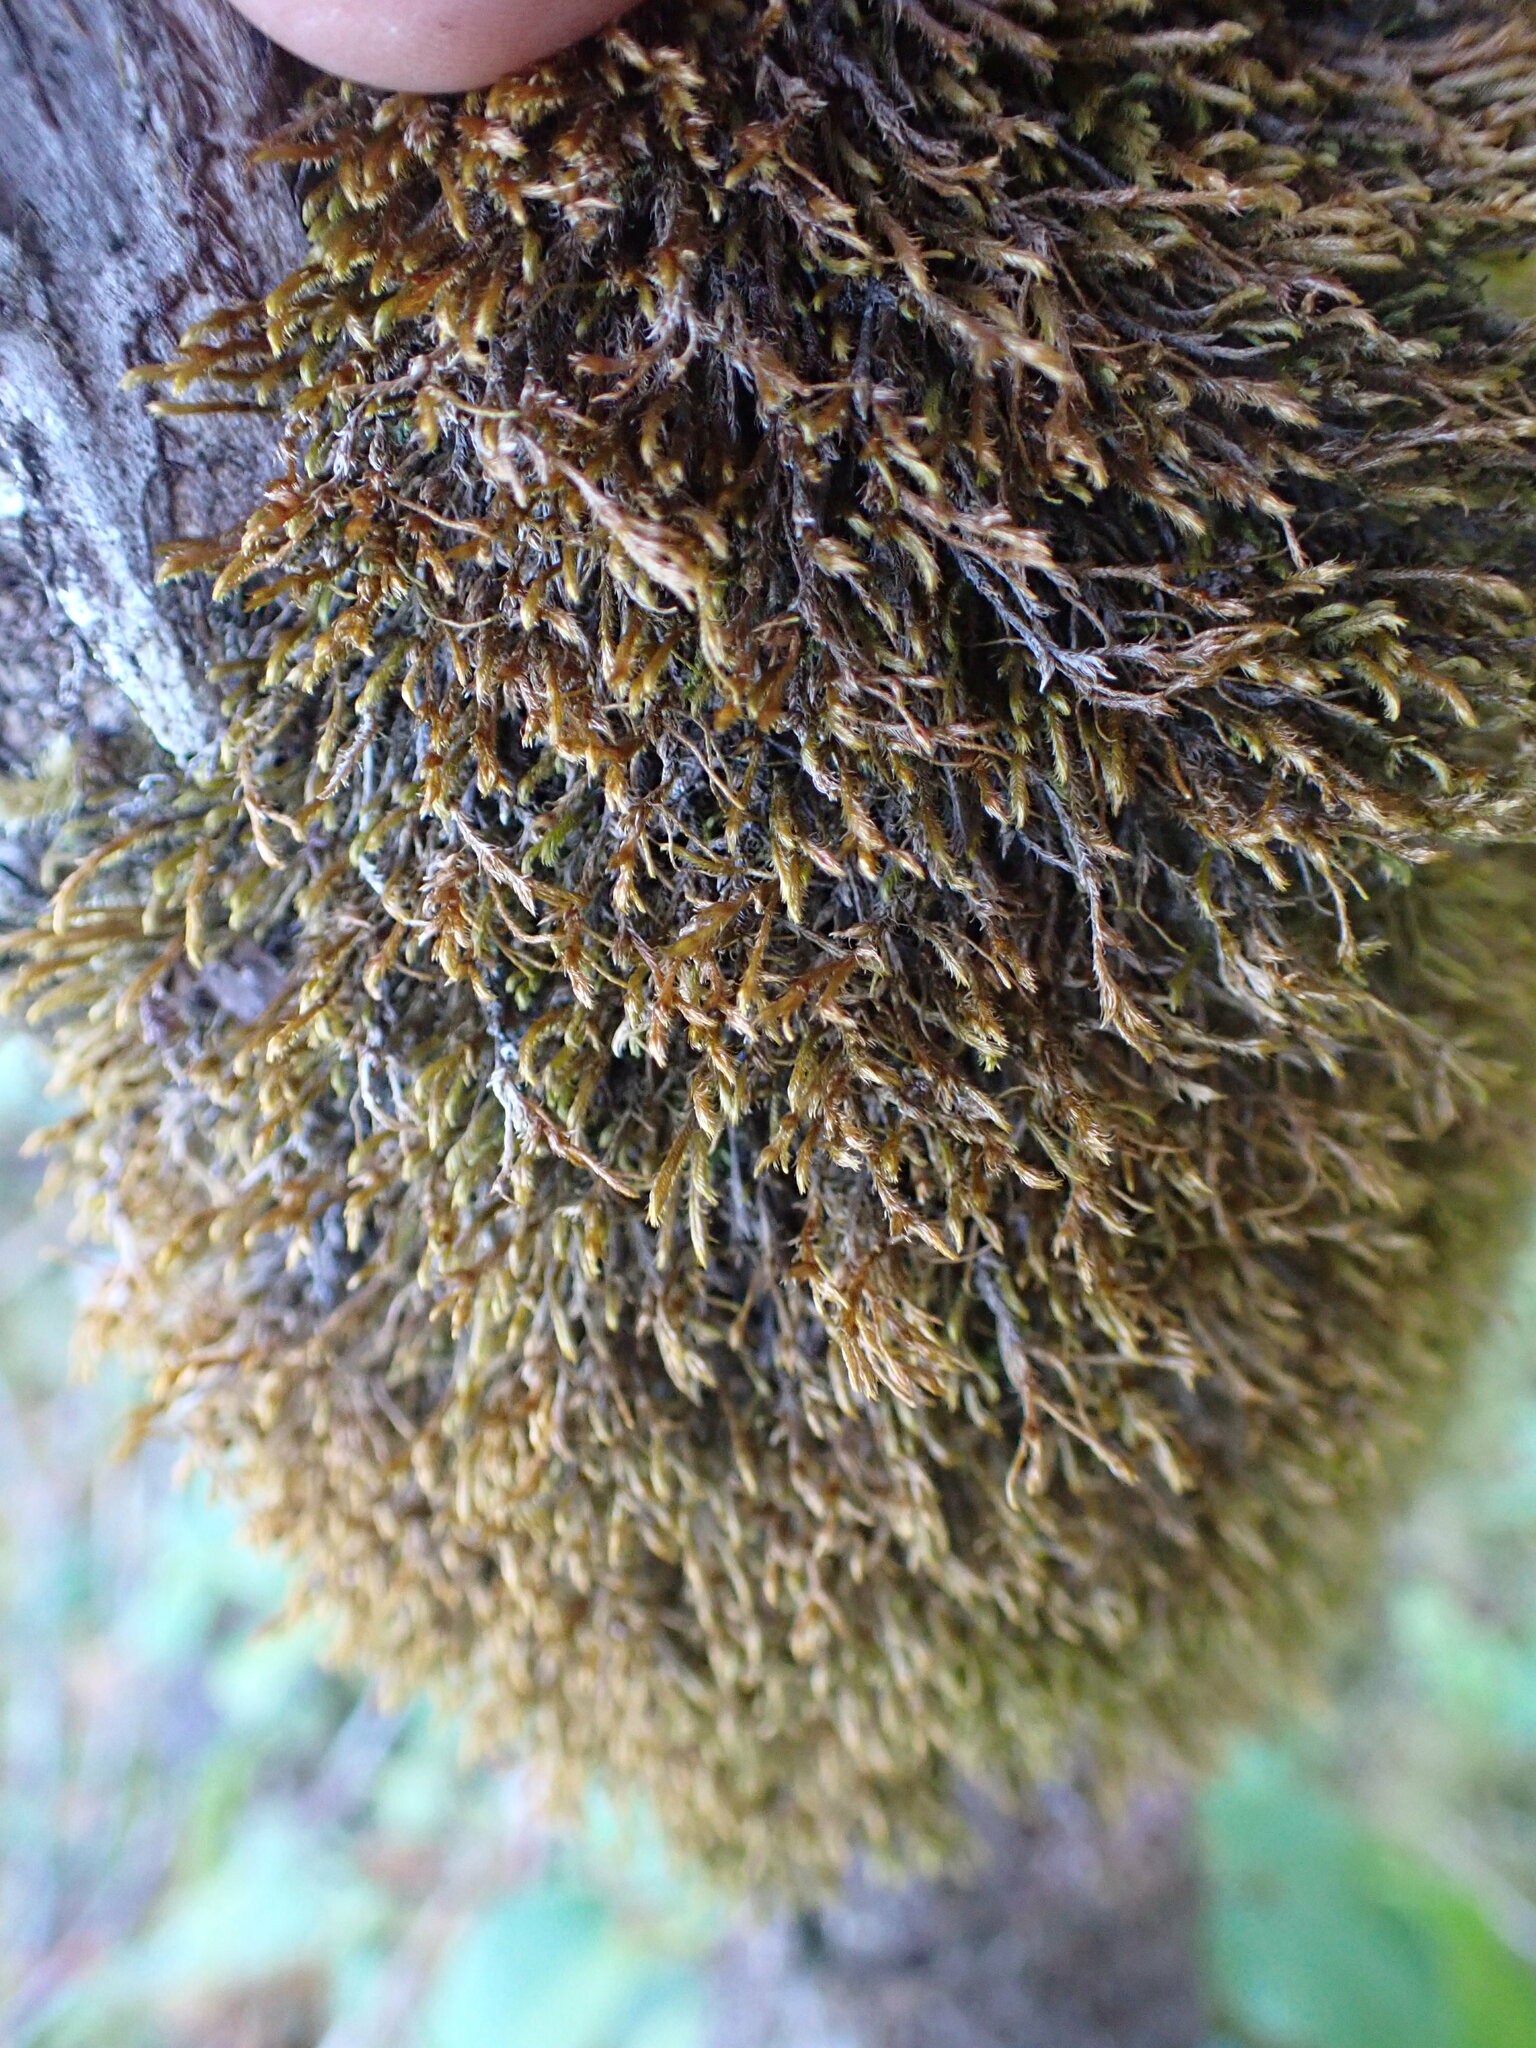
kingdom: Plantae
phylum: Marchantiophyta
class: Jungermanniopsida
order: Jungermanniales
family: Herbertaceae
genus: Herbertus
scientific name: Herbertus aduncus
